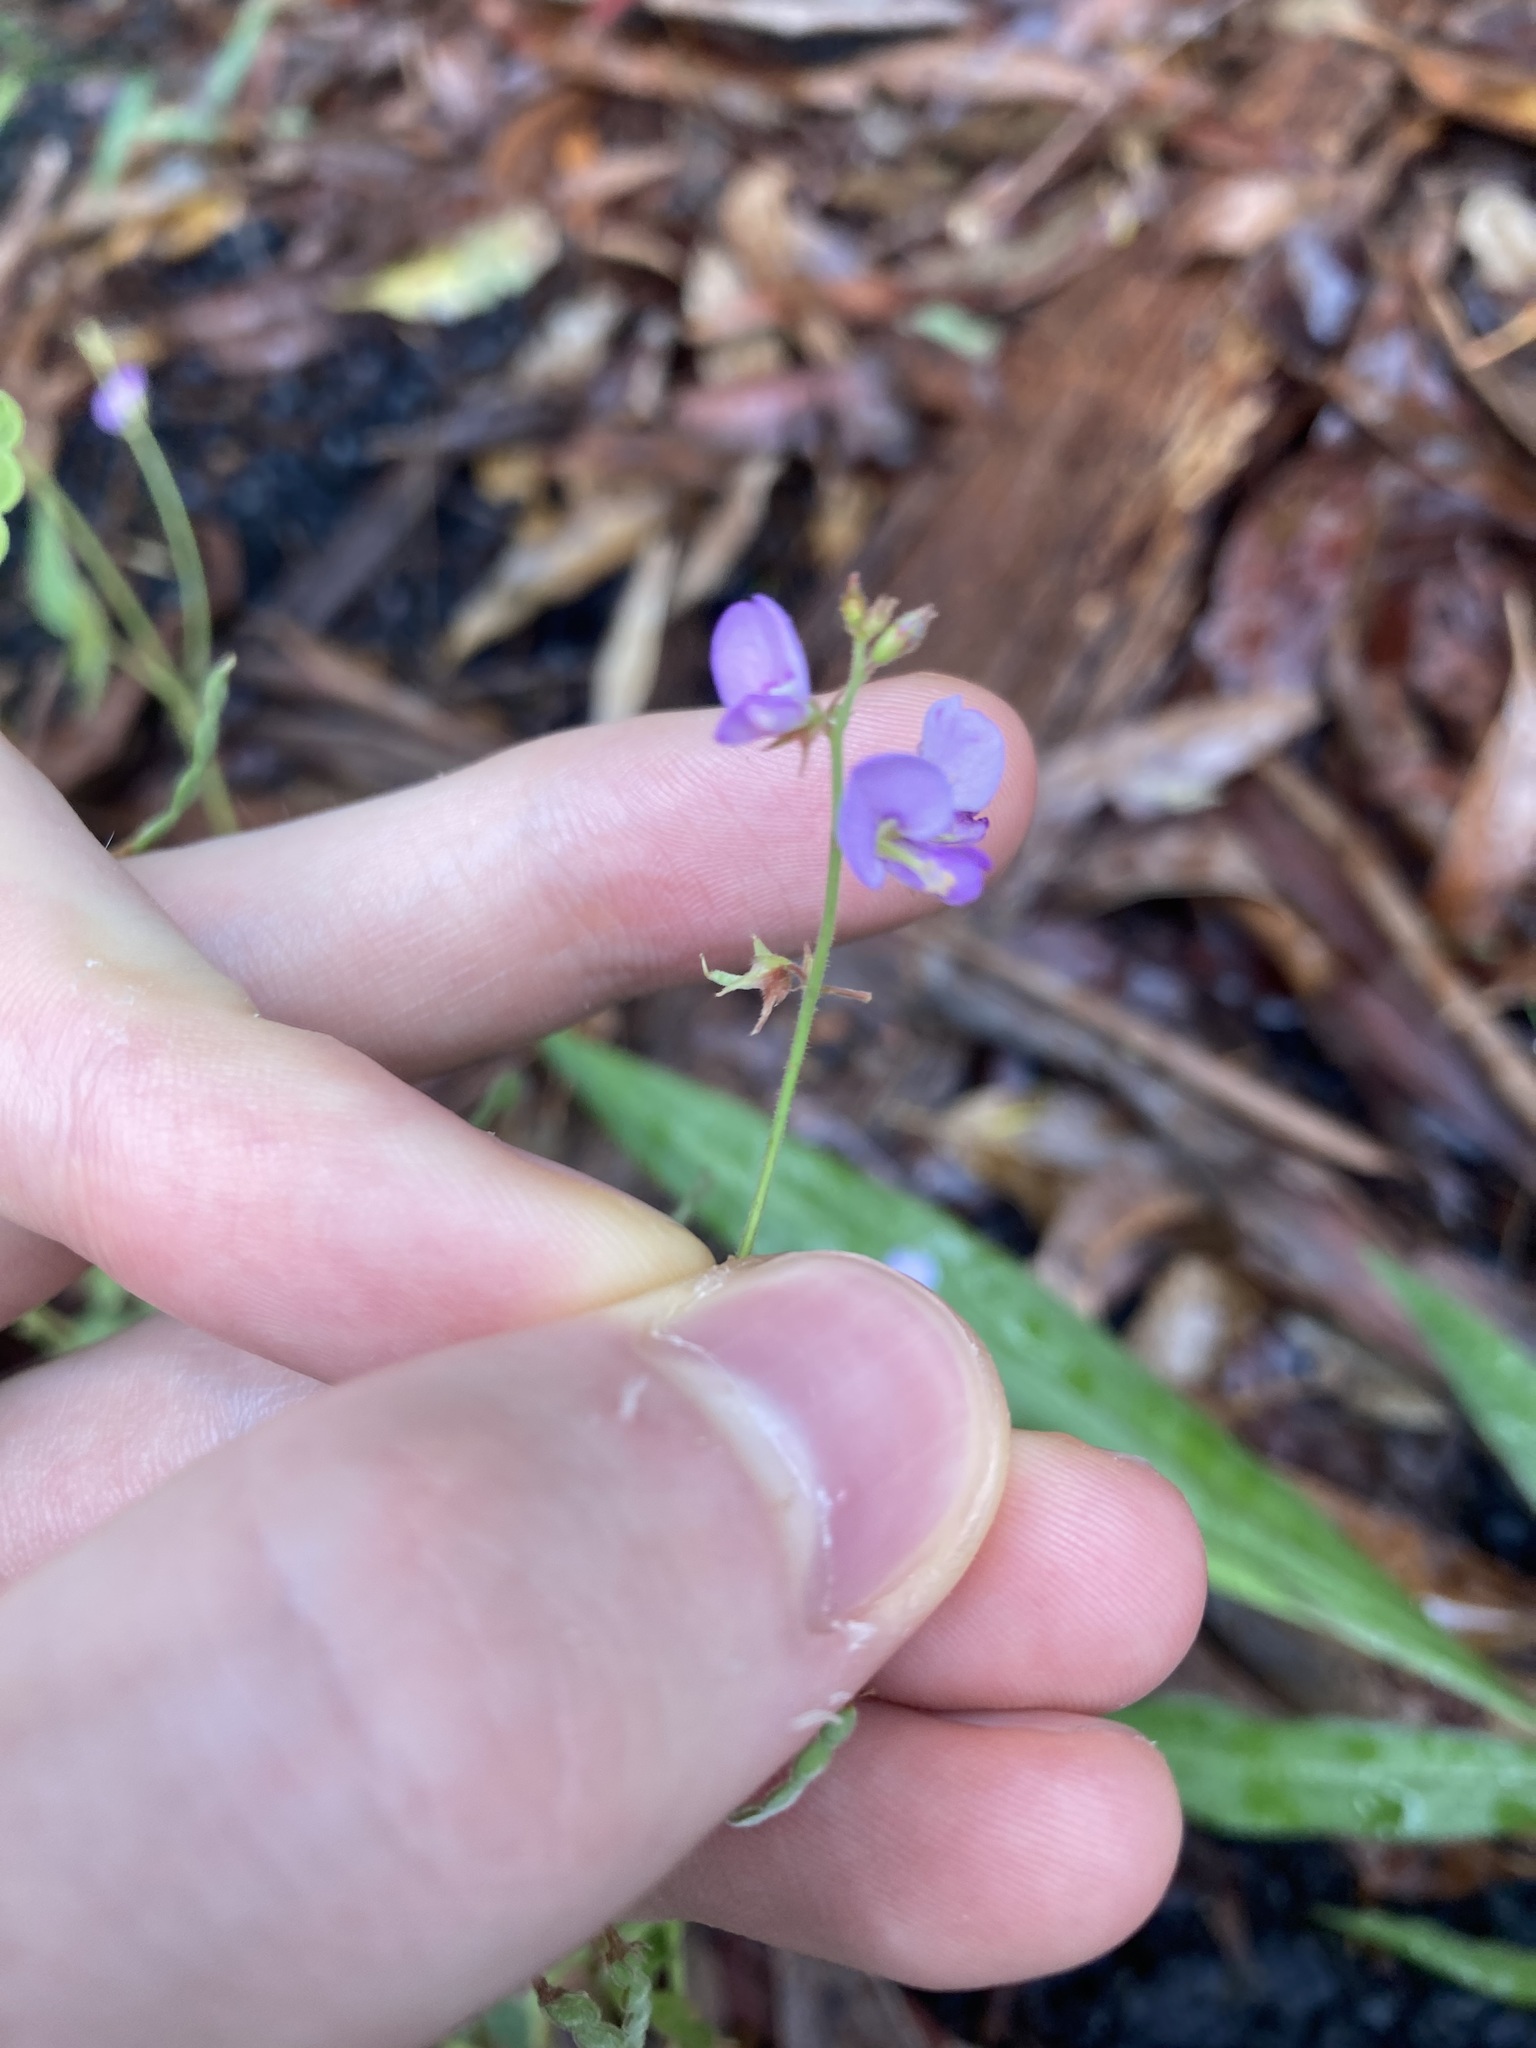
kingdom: Plantae
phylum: Tracheophyta
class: Magnoliopsida
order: Fabales
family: Fabaceae
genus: Maekawaea
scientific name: Maekawaea rhytidophylla
